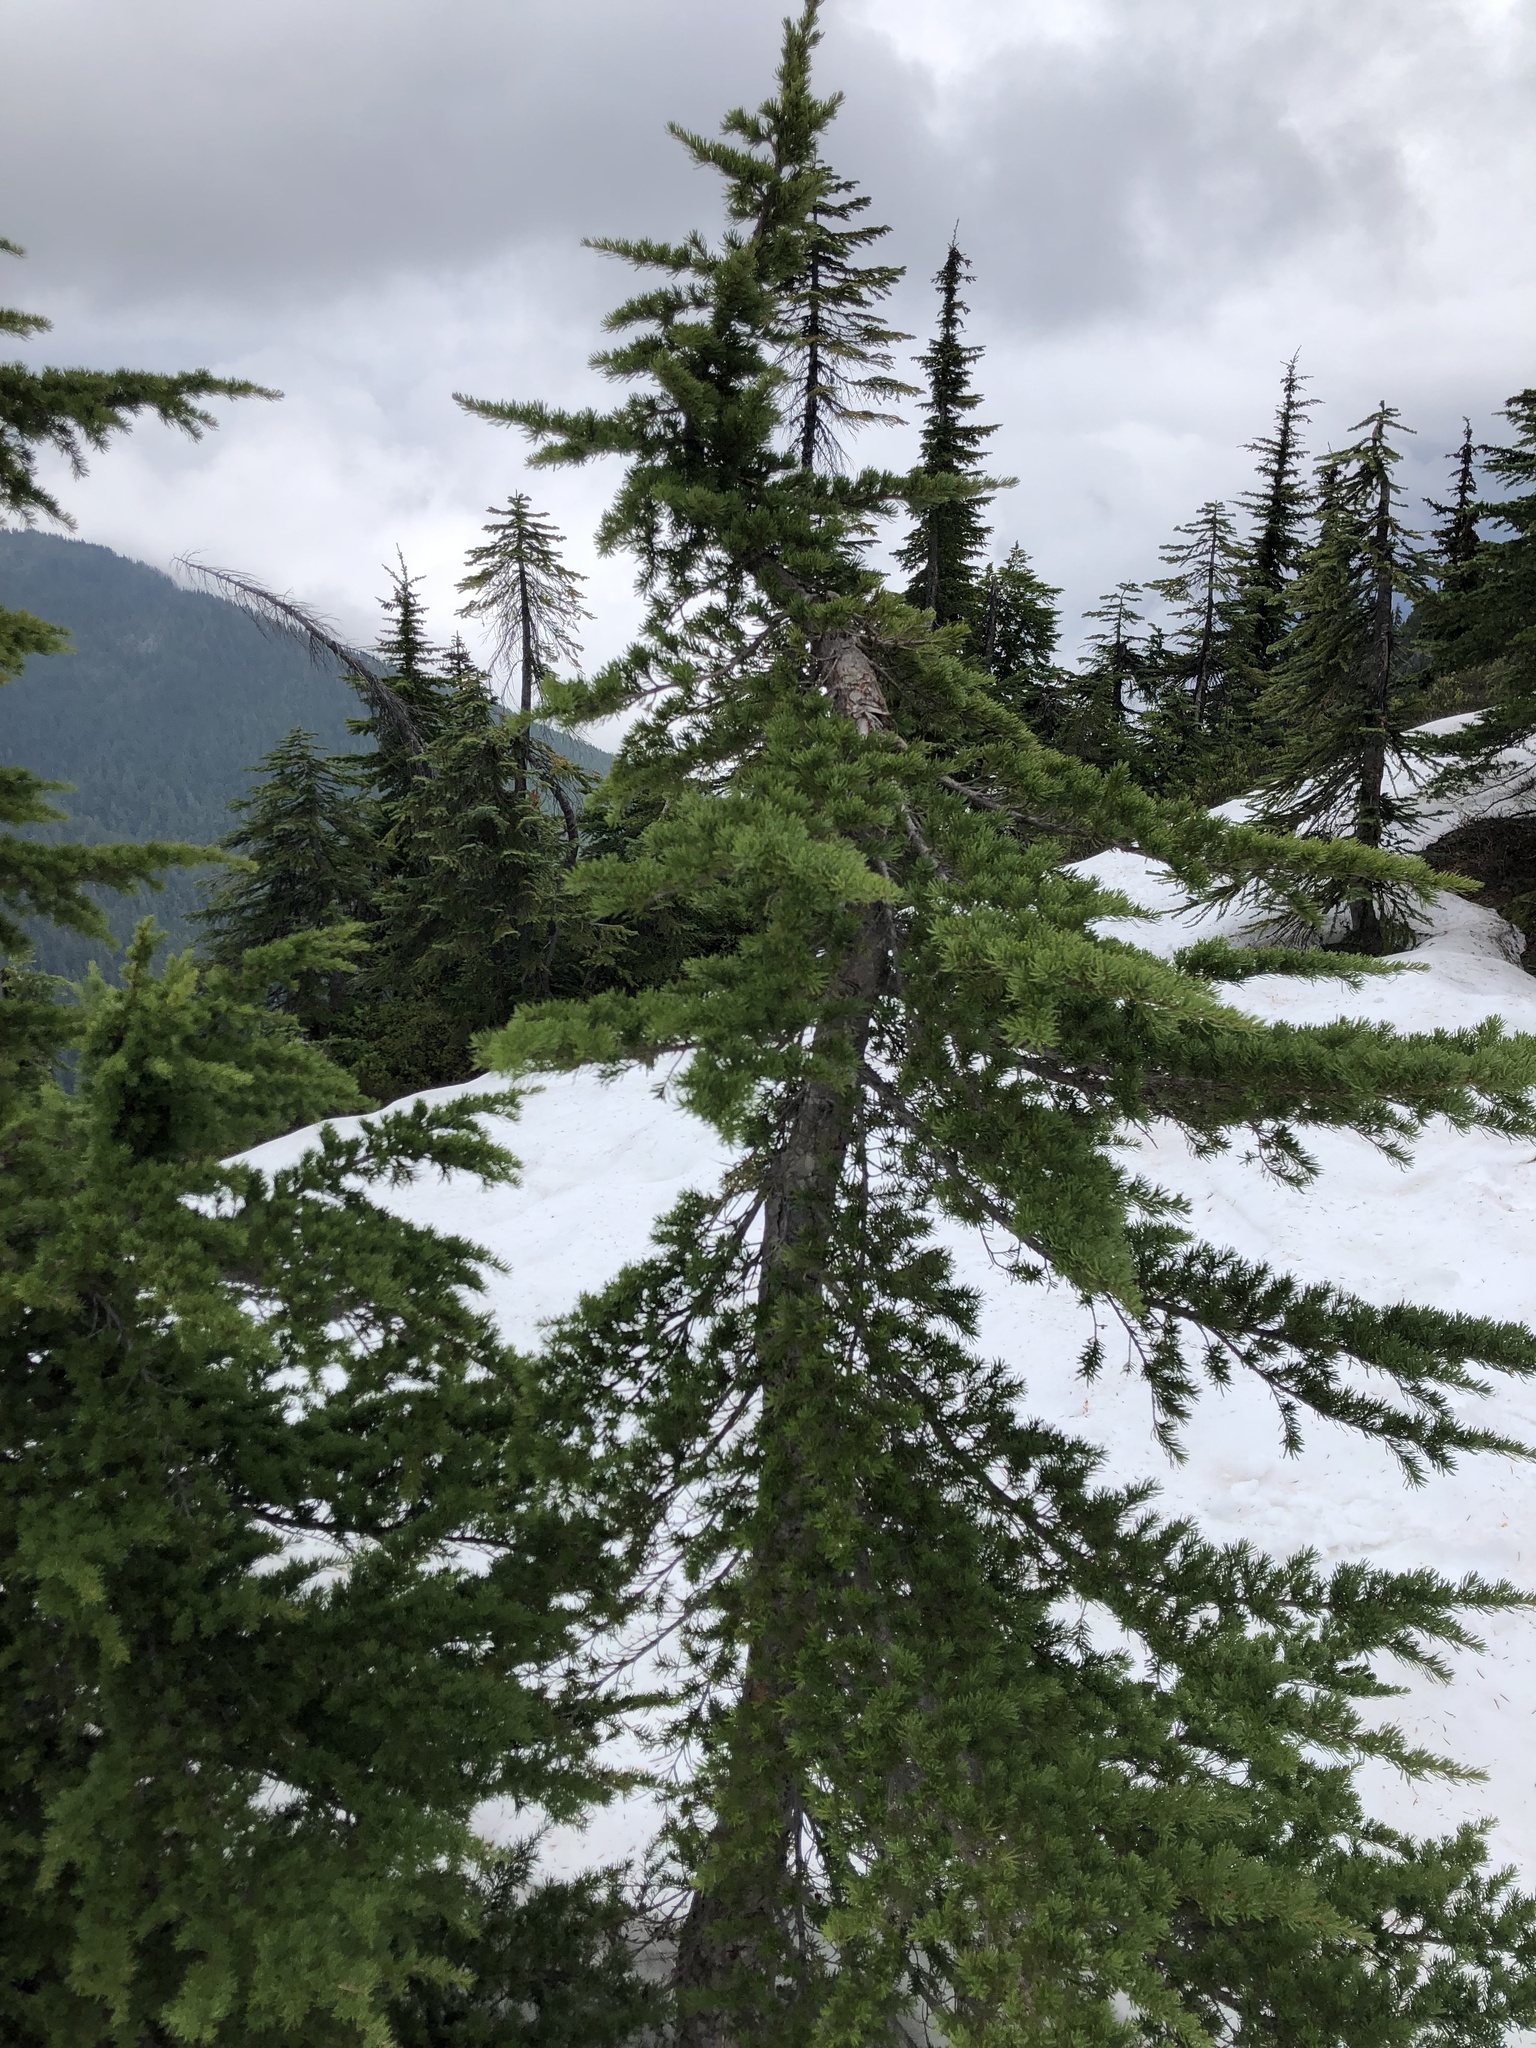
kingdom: Plantae
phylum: Tracheophyta
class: Pinopsida
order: Pinales
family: Pinaceae
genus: Tsuga
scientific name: Tsuga mertensiana
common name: Mountain hemlock
